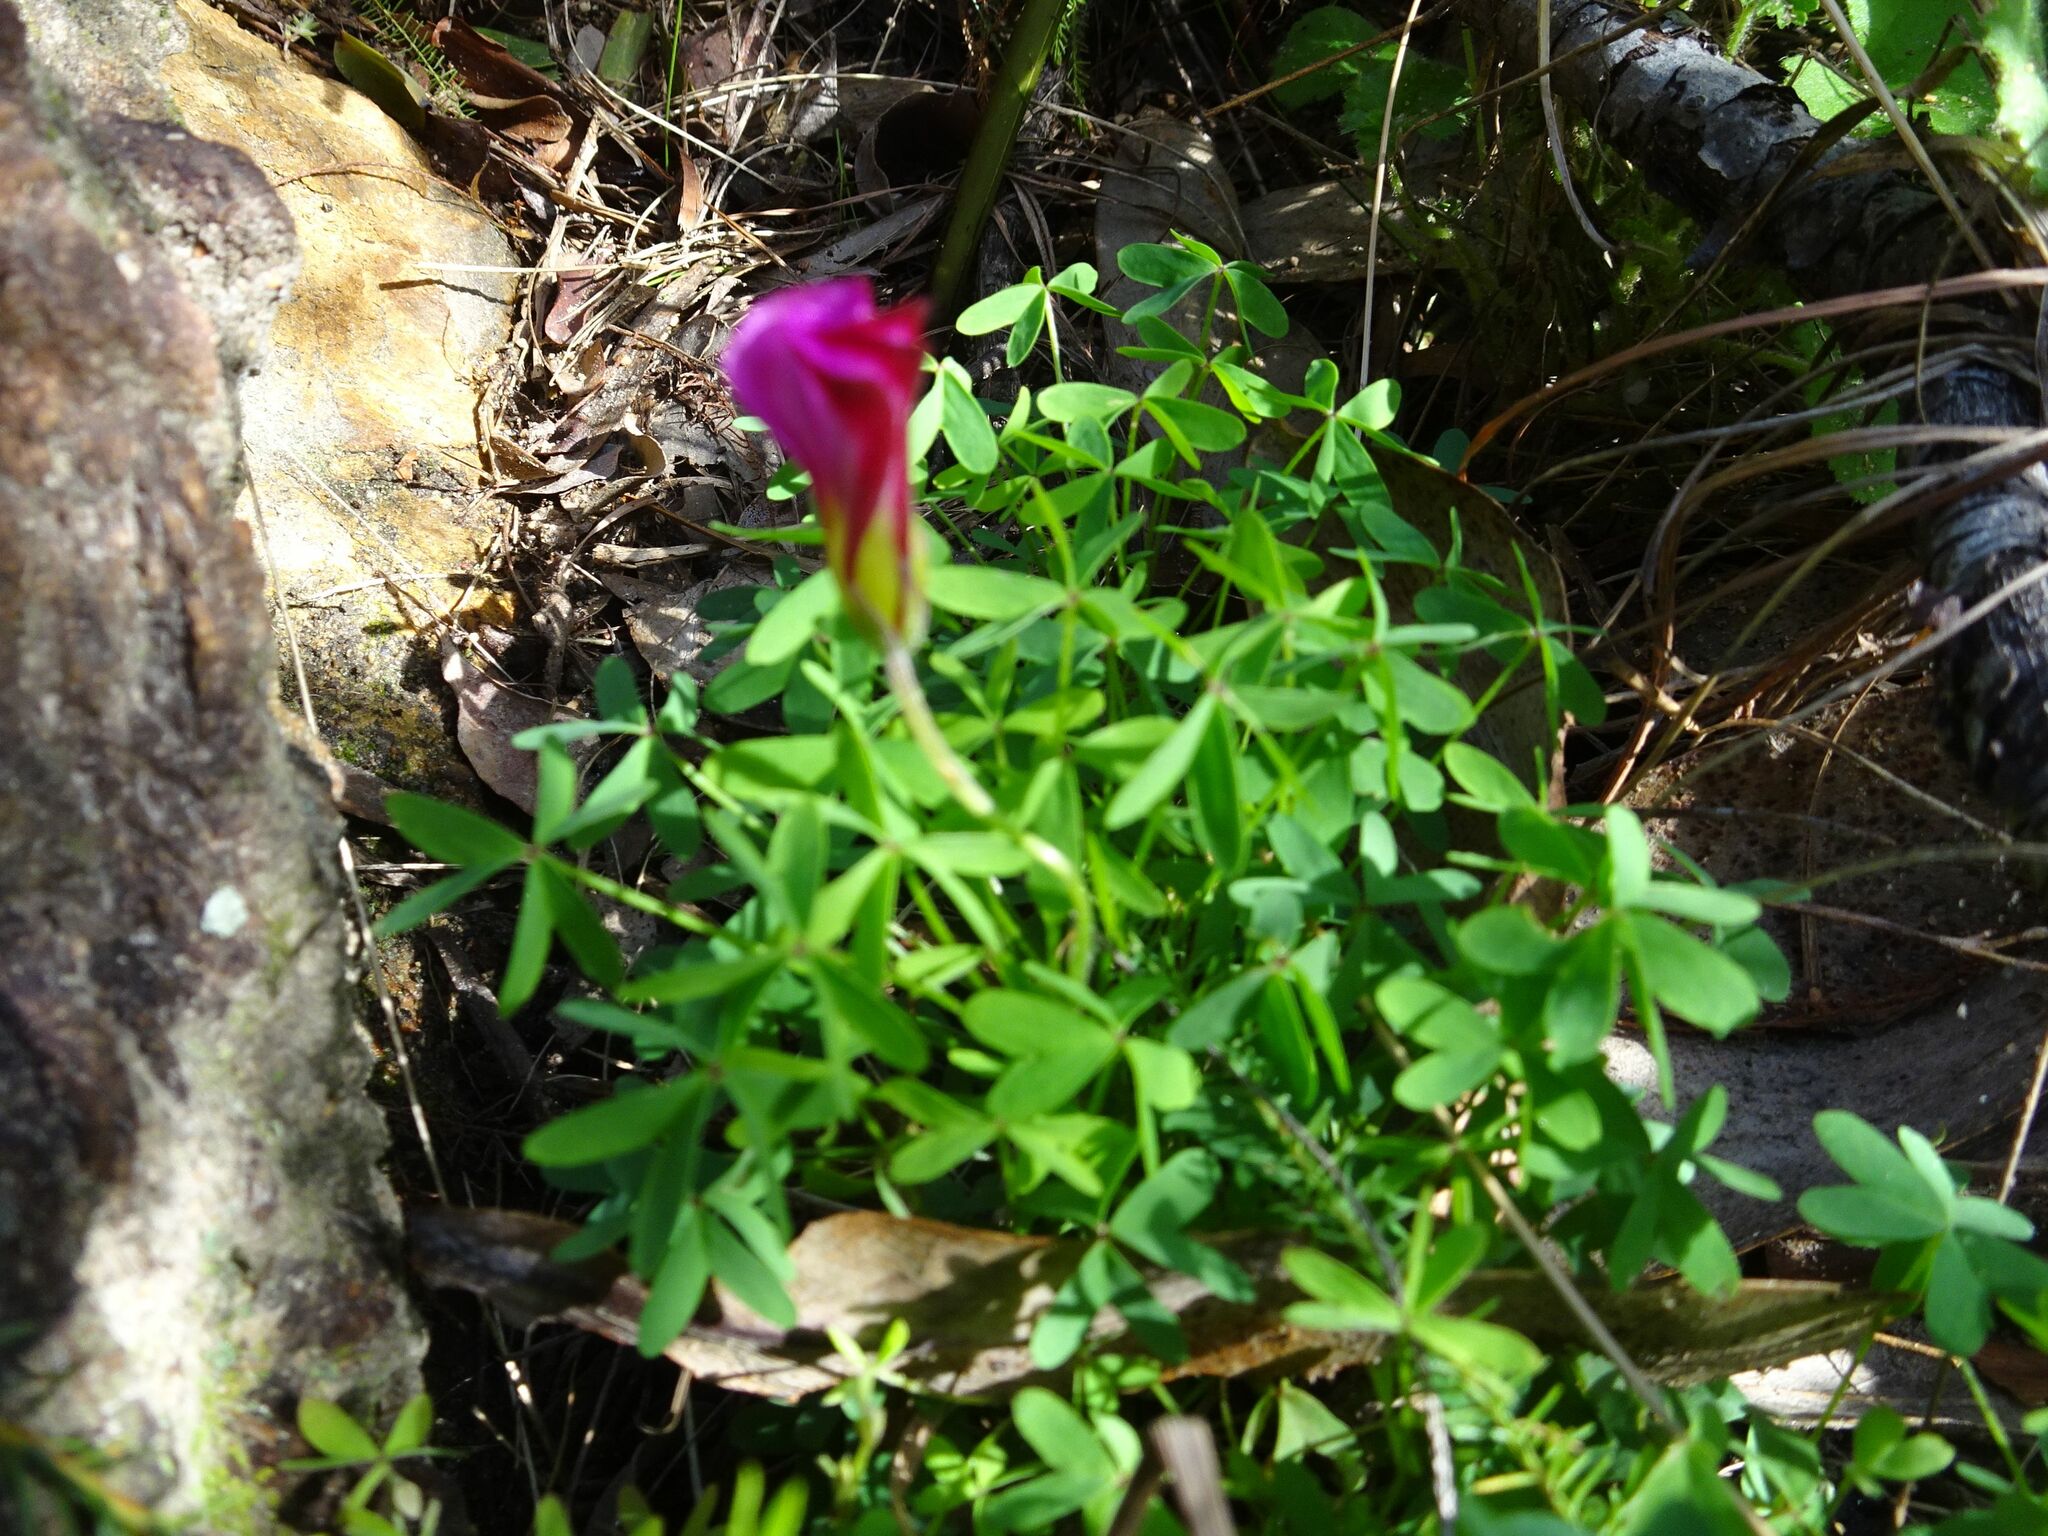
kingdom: Plantae
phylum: Tracheophyta
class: Magnoliopsida
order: Oxalidales
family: Oxalidaceae
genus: Oxalis
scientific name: Oxalis heterophylla
